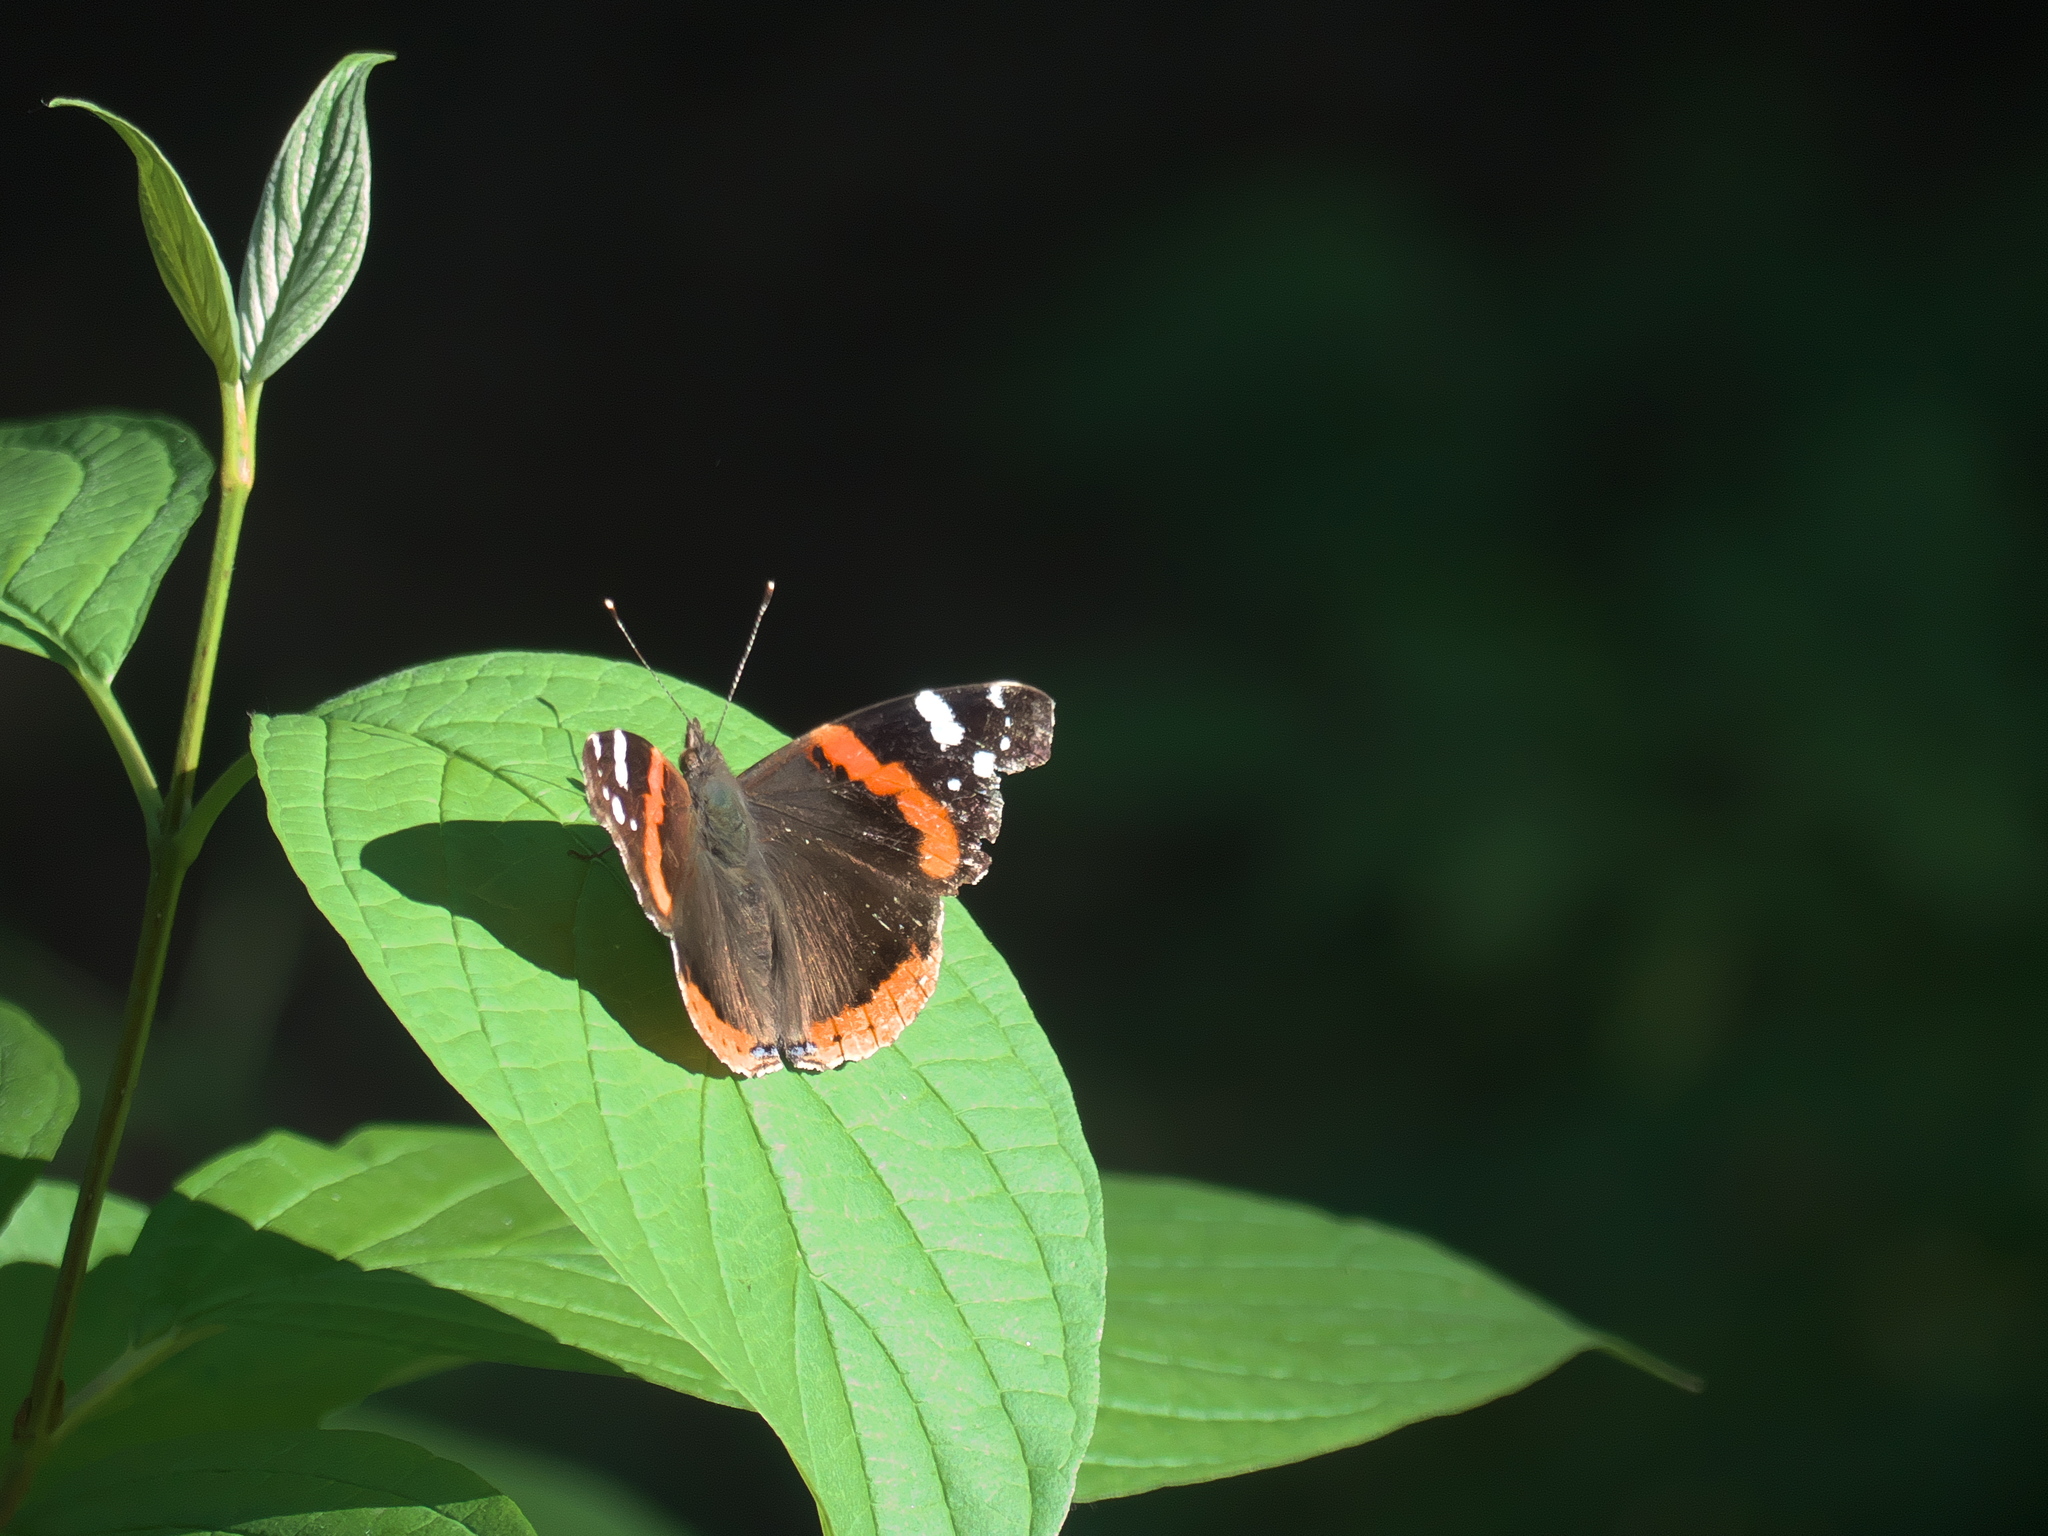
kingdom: Animalia
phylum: Arthropoda
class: Insecta
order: Lepidoptera
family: Nymphalidae
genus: Vanessa
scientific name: Vanessa atalanta
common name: Red admiral
